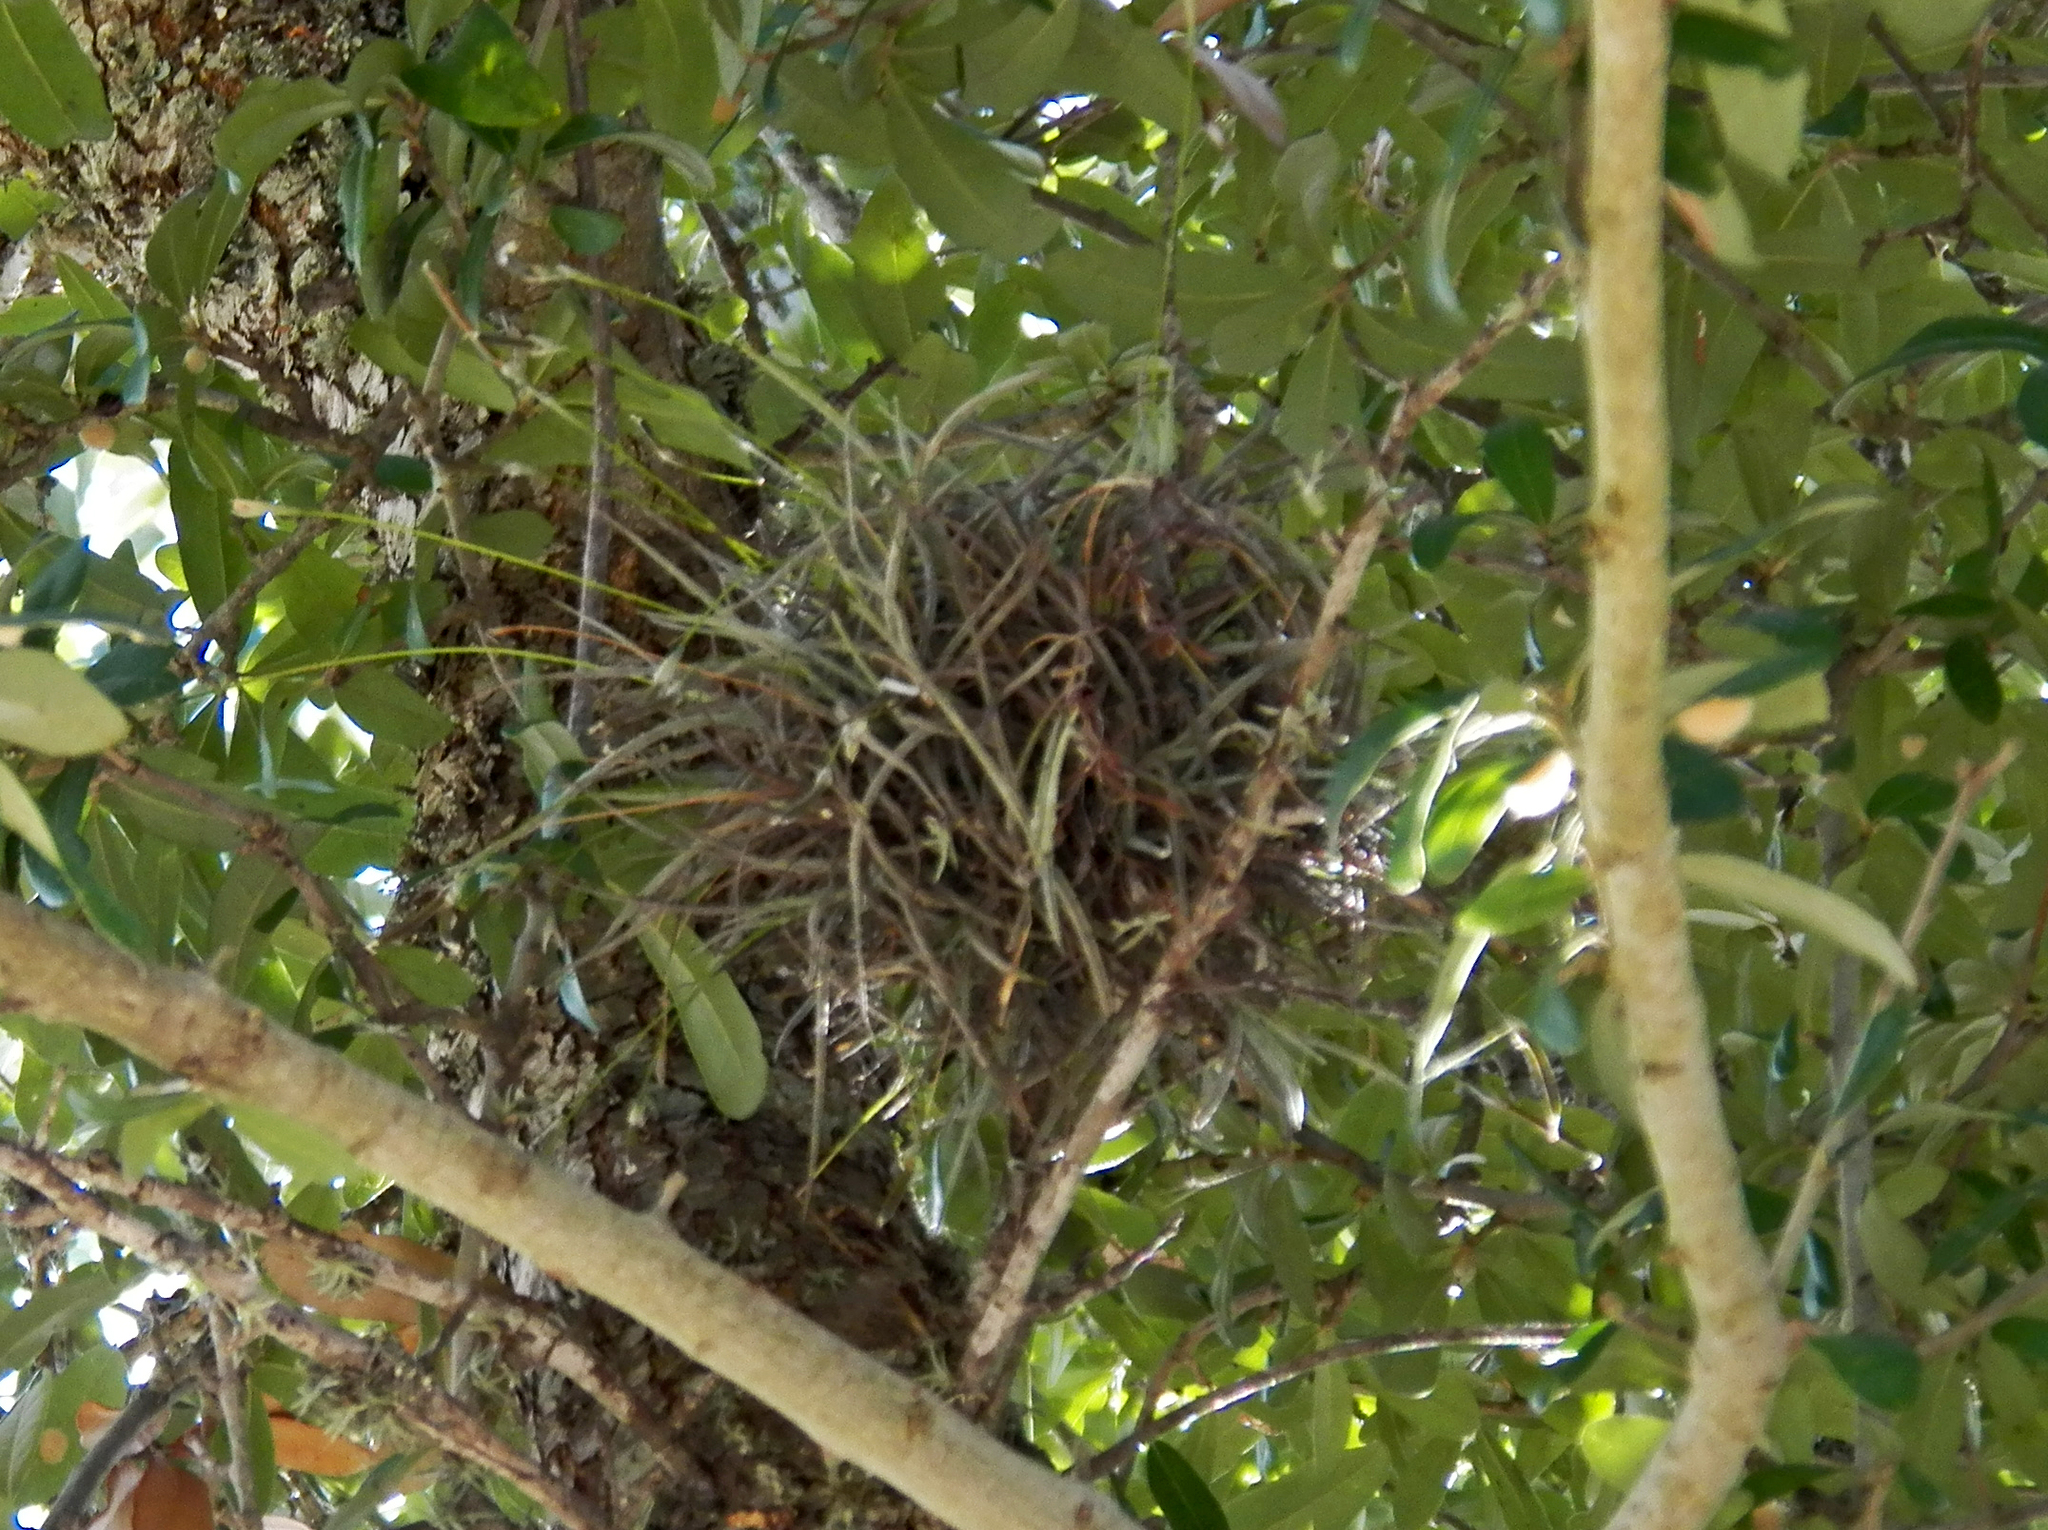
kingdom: Plantae
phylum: Tracheophyta
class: Liliopsida
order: Poales
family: Bromeliaceae
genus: Tillandsia
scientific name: Tillandsia recurvata
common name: Small ballmoss
